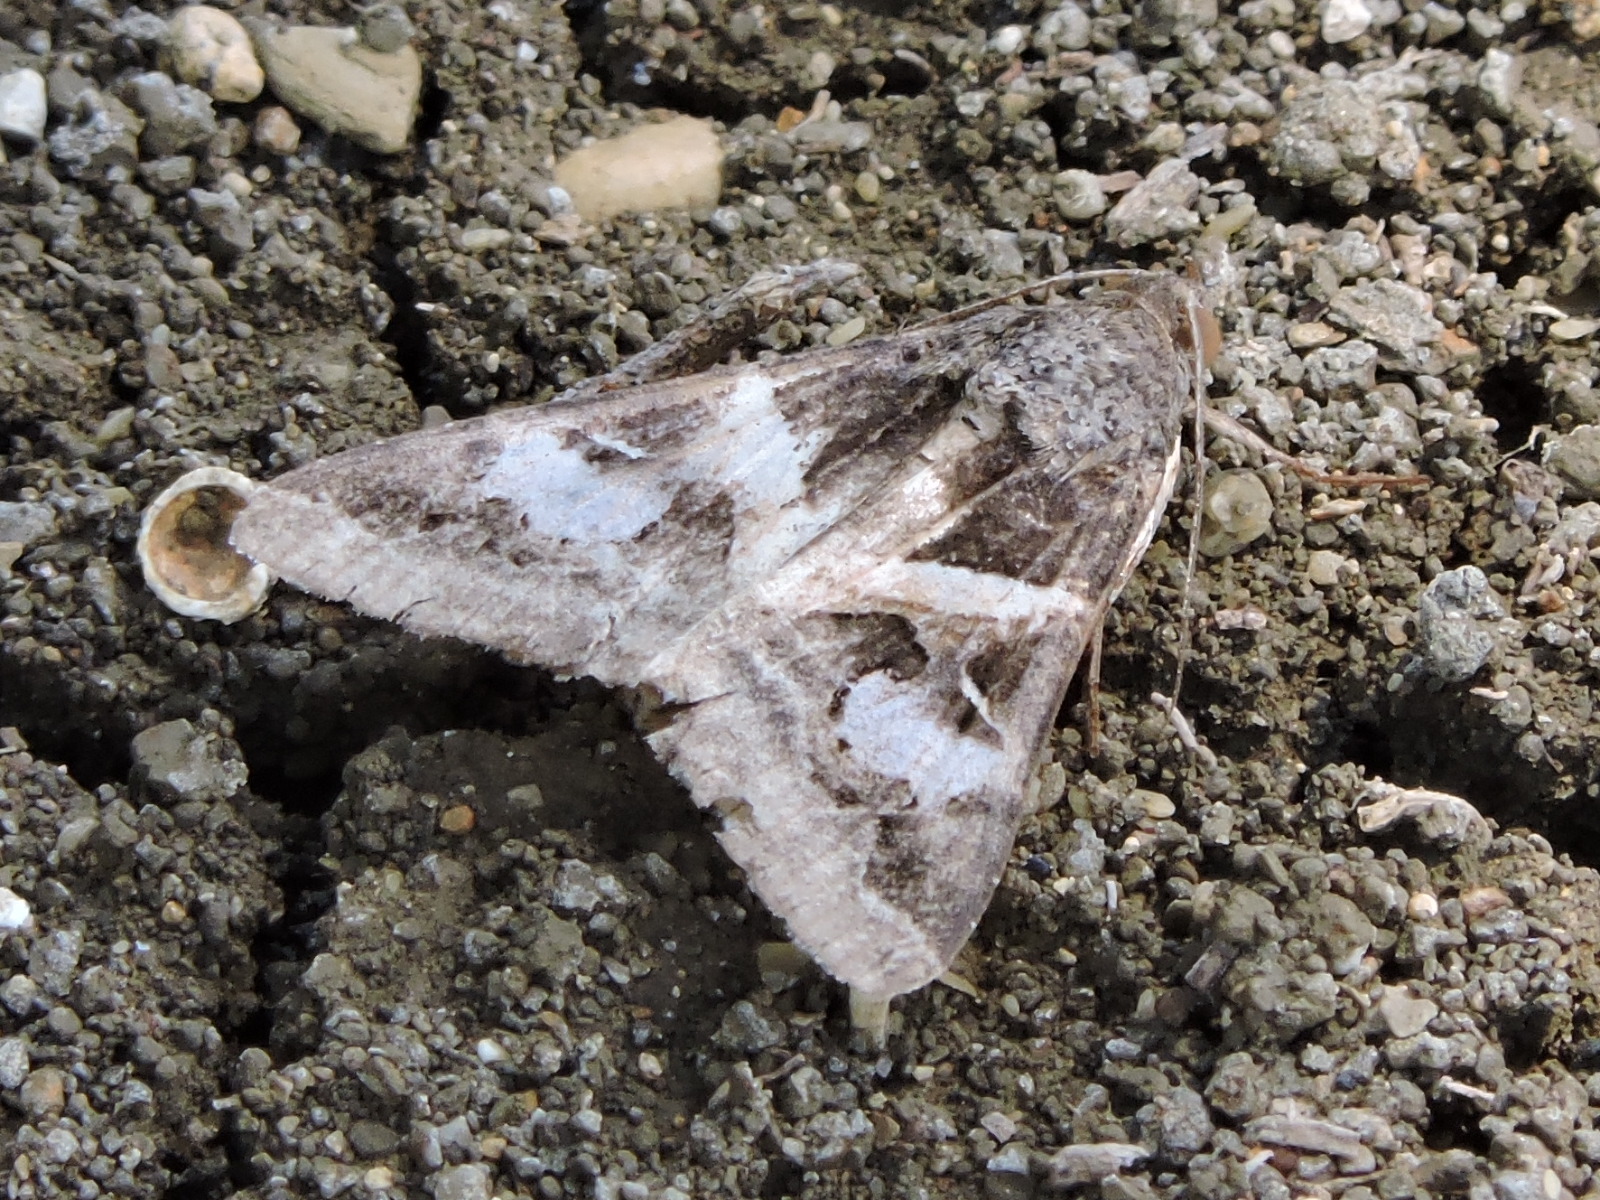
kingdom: Animalia
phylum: Arthropoda
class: Insecta
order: Lepidoptera
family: Erebidae
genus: Melipotis
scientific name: Melipotis indomita
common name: Moth
